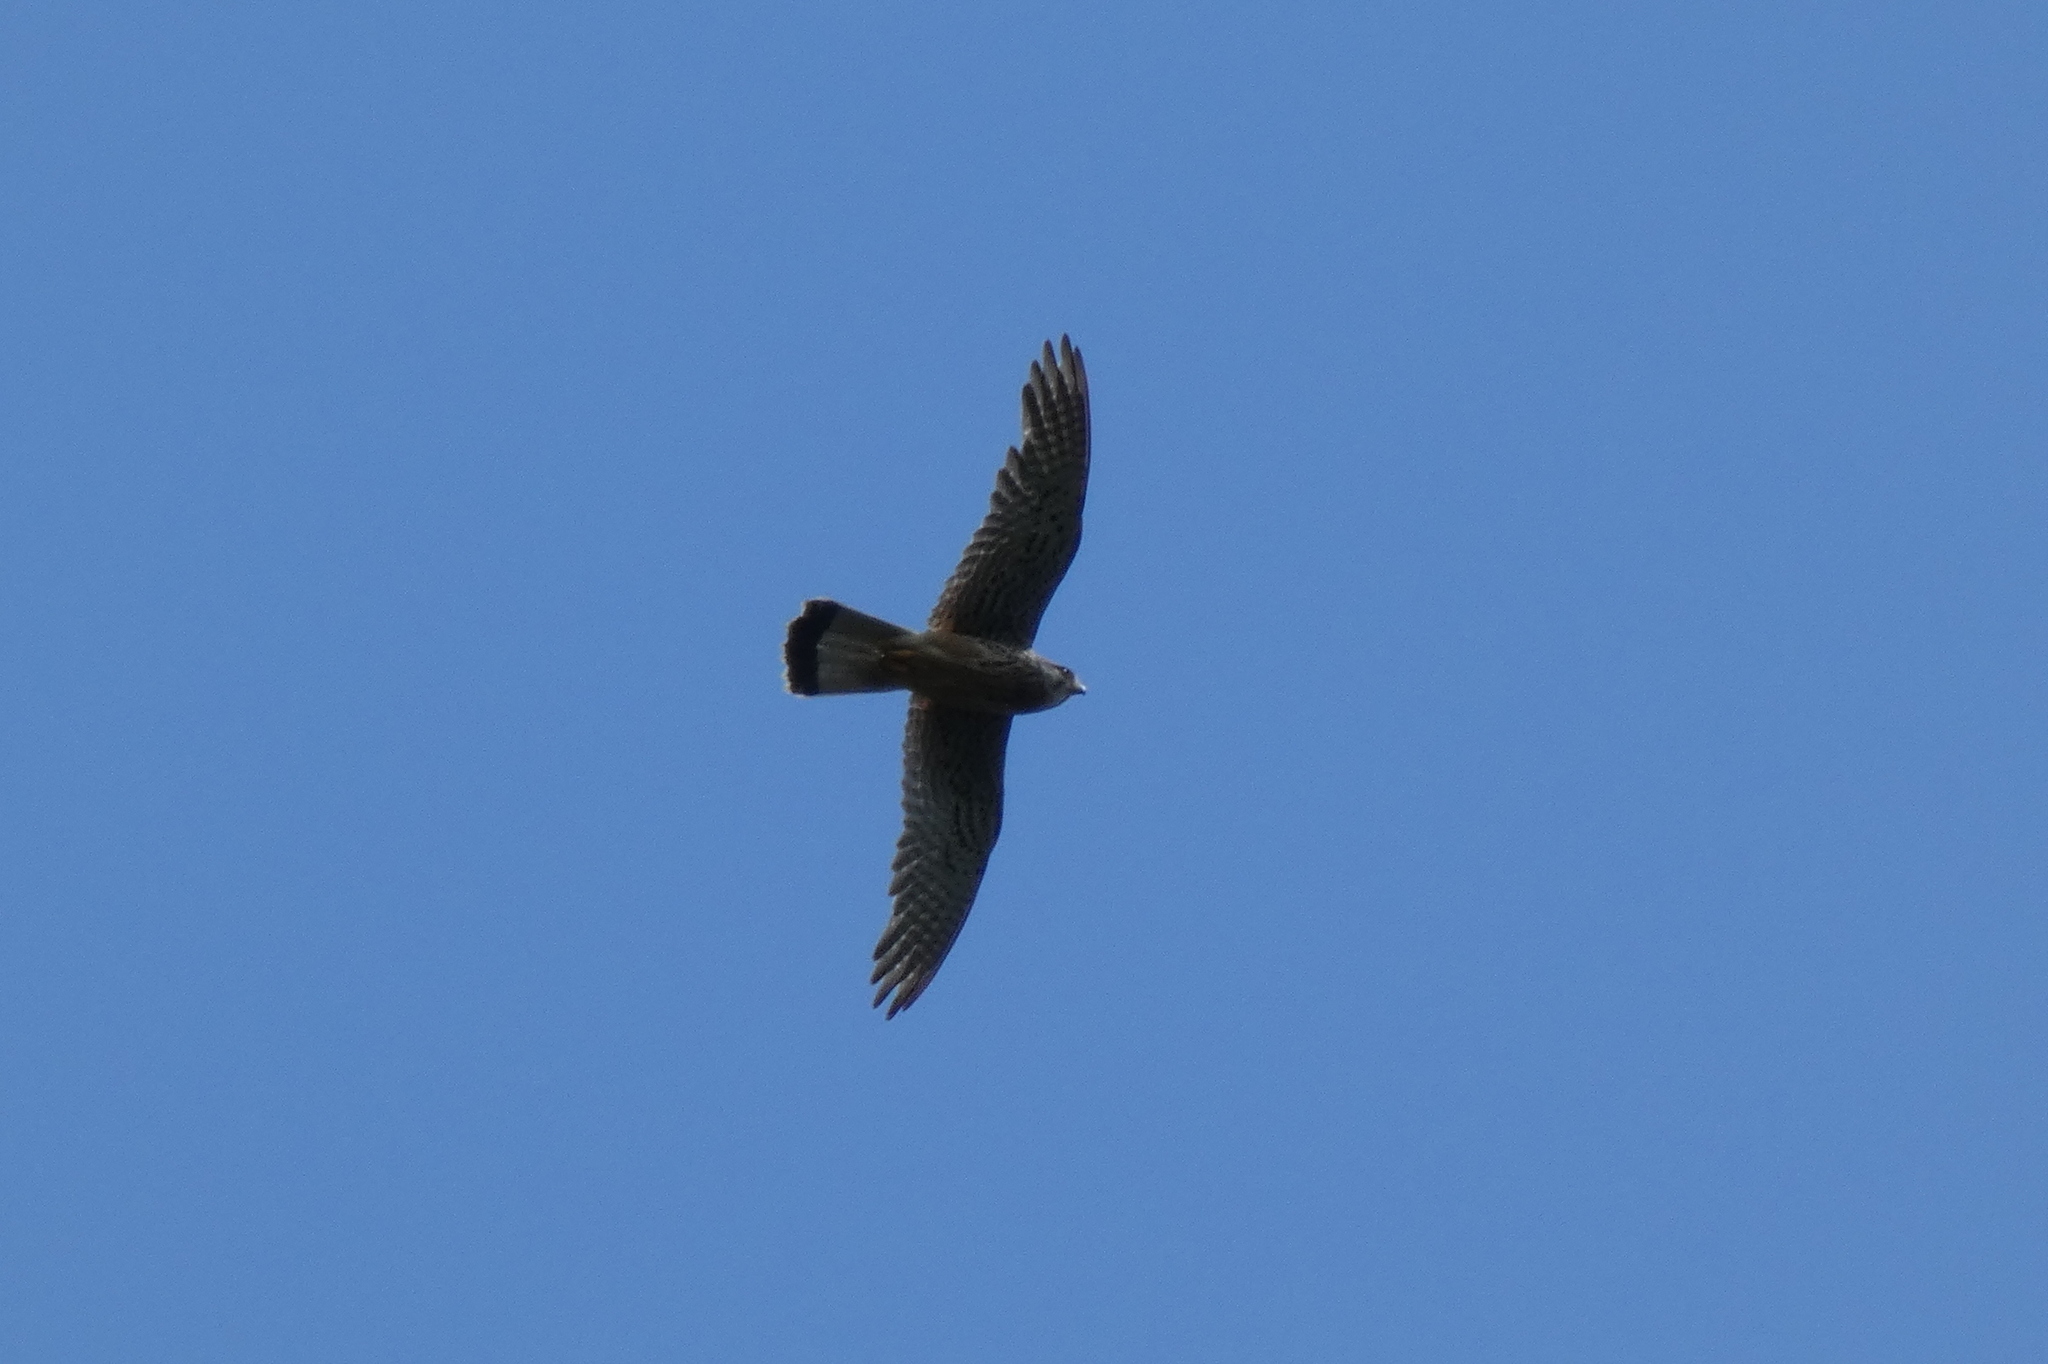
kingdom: Animalia
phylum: Chordata
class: Aves
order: Falconiformes
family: Falconidae
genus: Falco
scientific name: Falco tinnunculus
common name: Common kestrel
